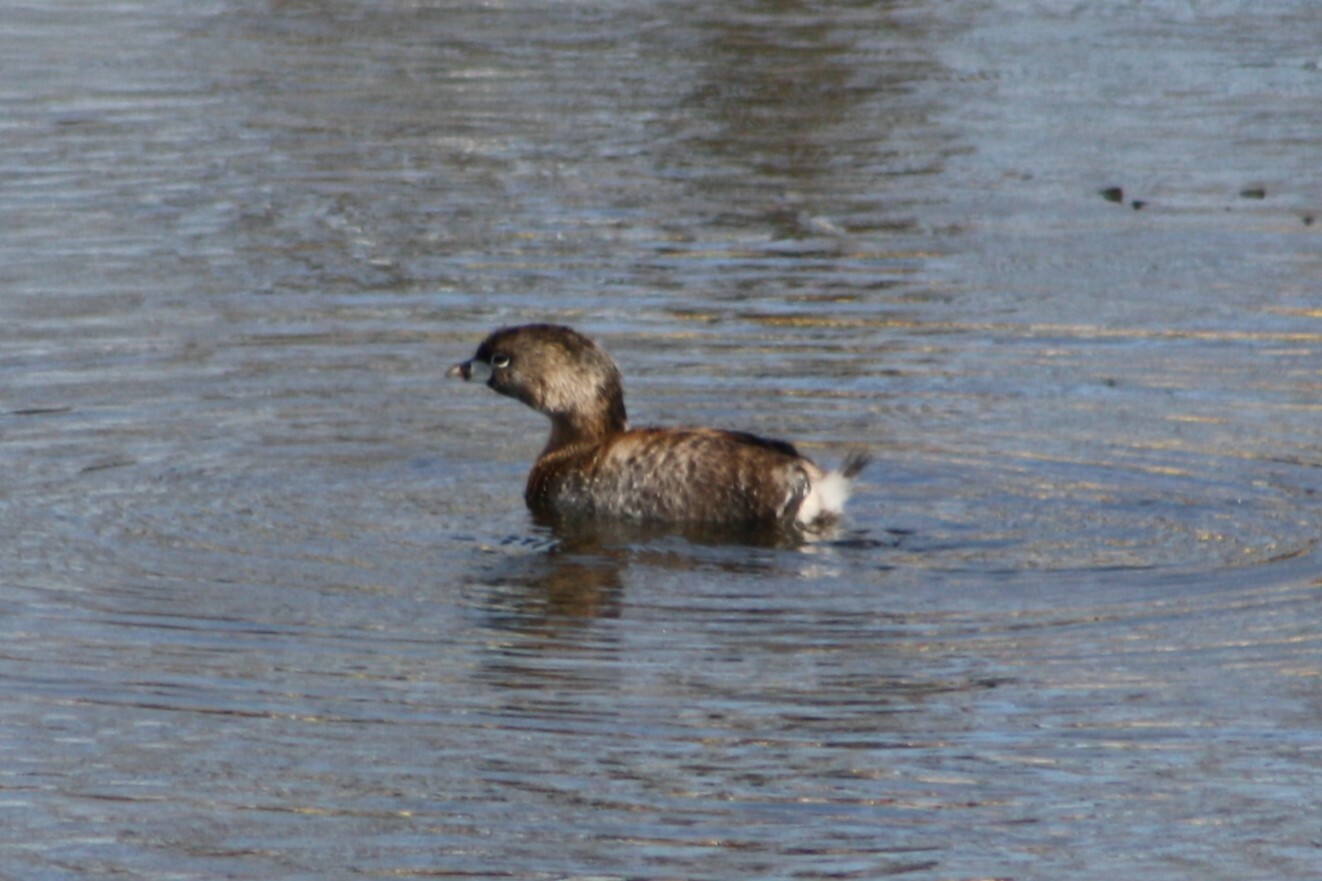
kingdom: Animalia
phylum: Chordata
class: Aves
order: Podicipediformes
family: Podicipedidae
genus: Podilymbus
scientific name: Podilymbus podiceps
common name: Pied-billed grebe
